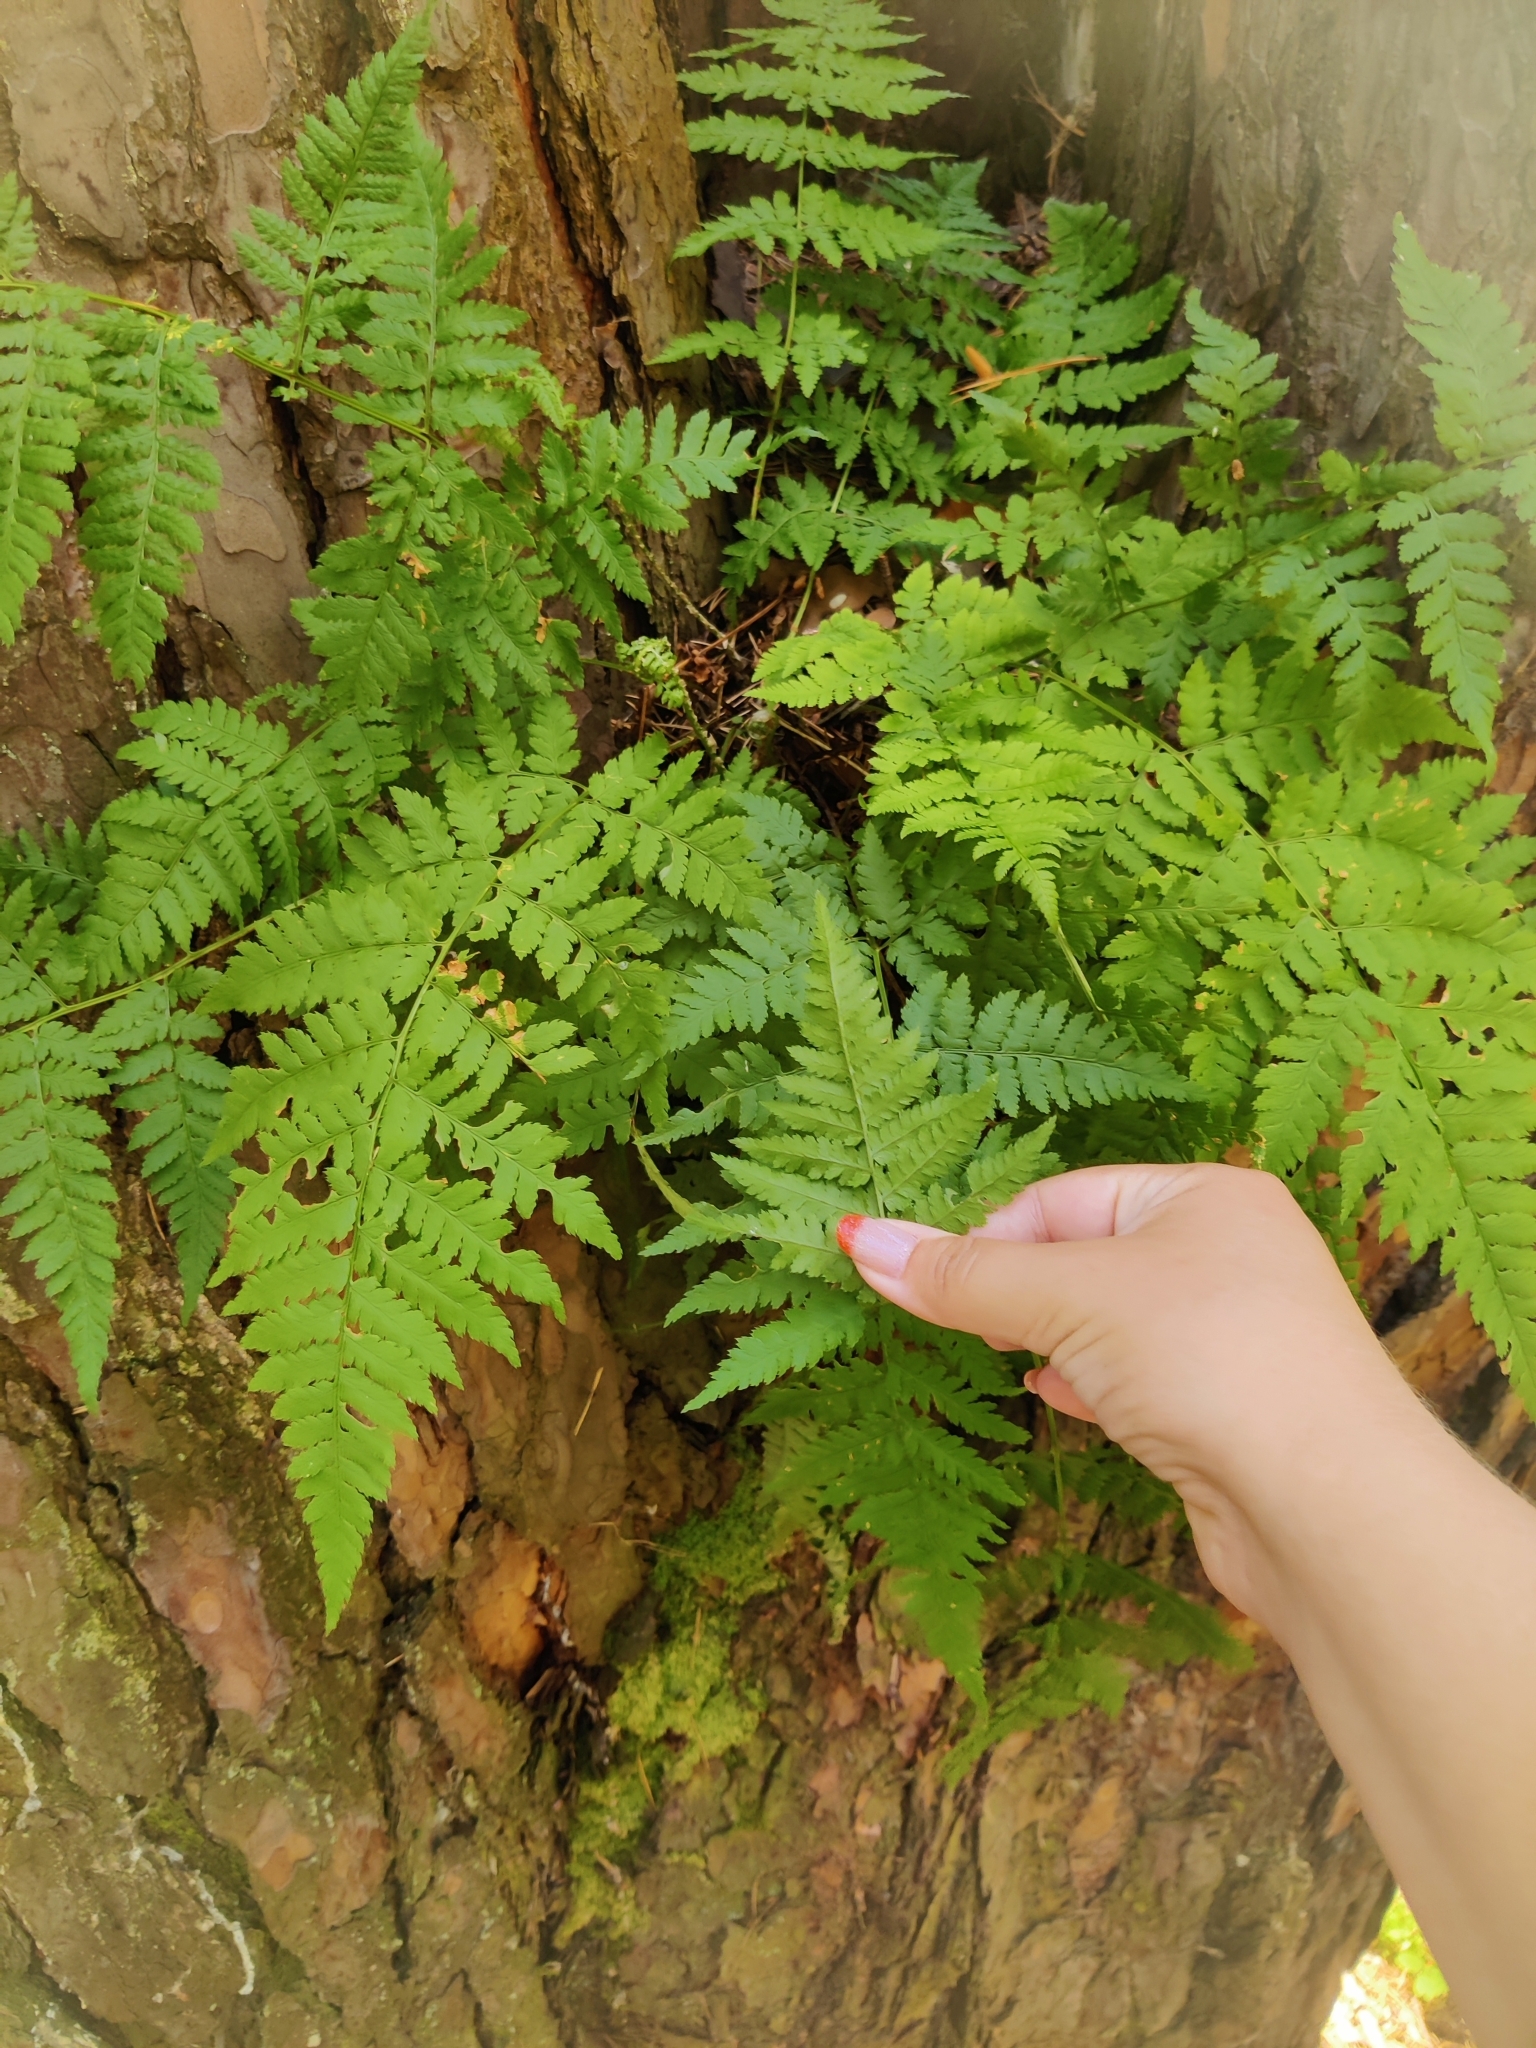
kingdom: Plantae
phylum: Tracheophyta
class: Polypodiopsida
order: Polypodiales
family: Dryopteridaceae
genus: Dryopteris
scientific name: Dryopteris carthusiana
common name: Narrow buckler-fern
